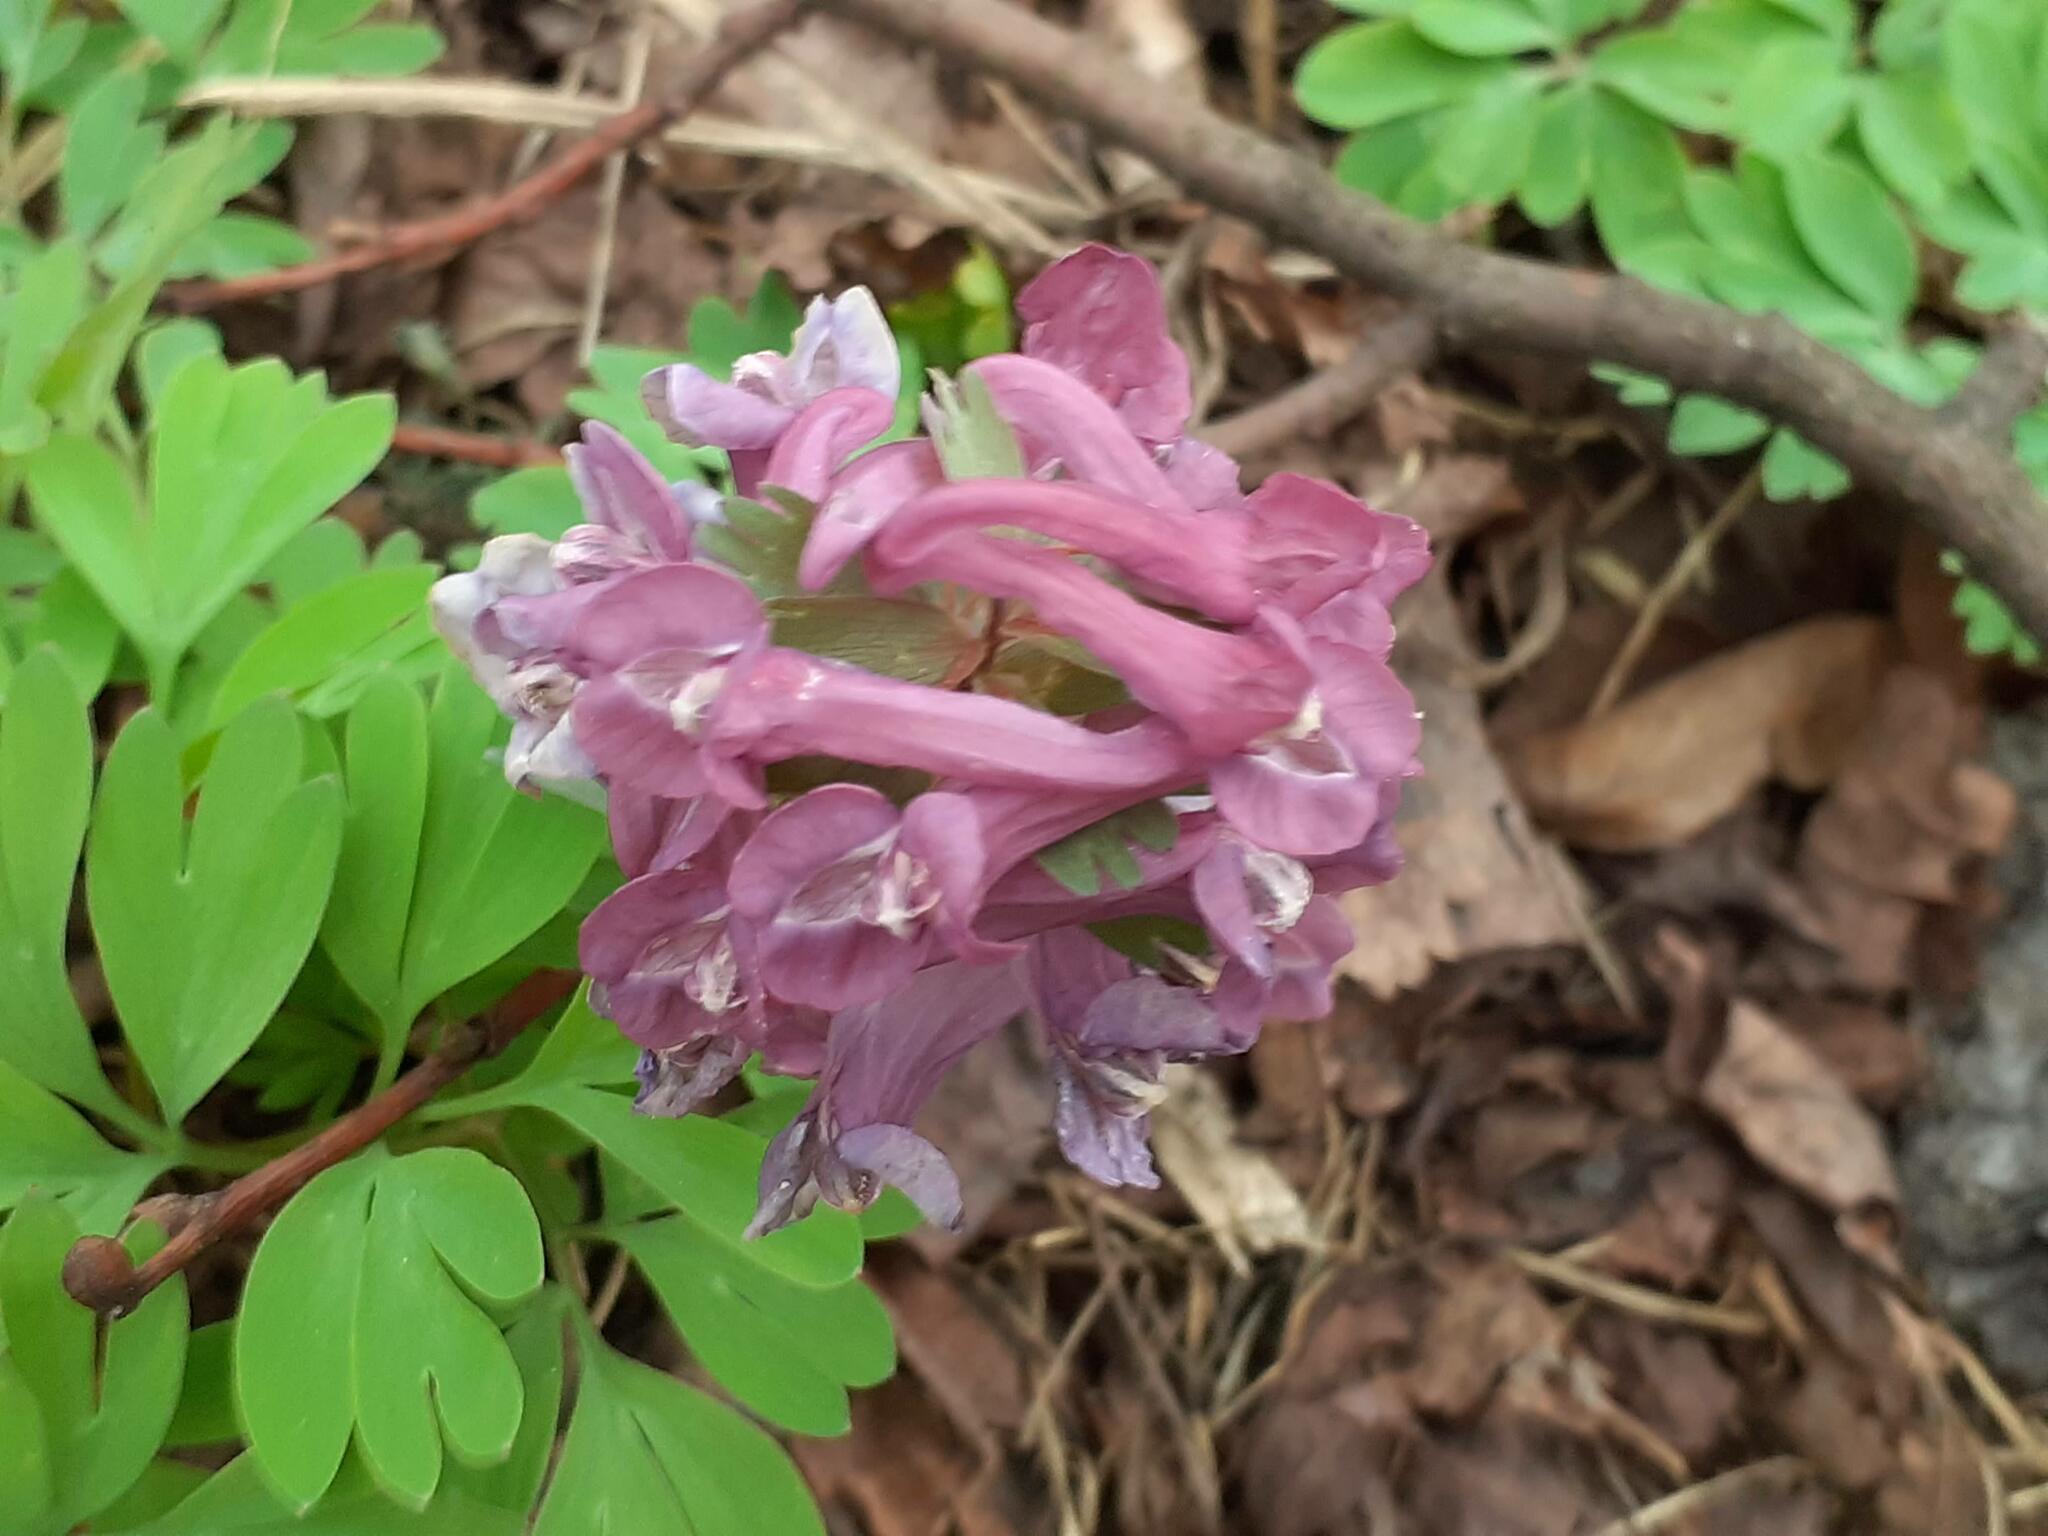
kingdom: Plantae
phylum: Tracheophyta
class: Magnoliopsida
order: Ranunculales
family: Papaveraceae
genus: Corydalis
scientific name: Corydalis solida
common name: Bird-in-a-bush
